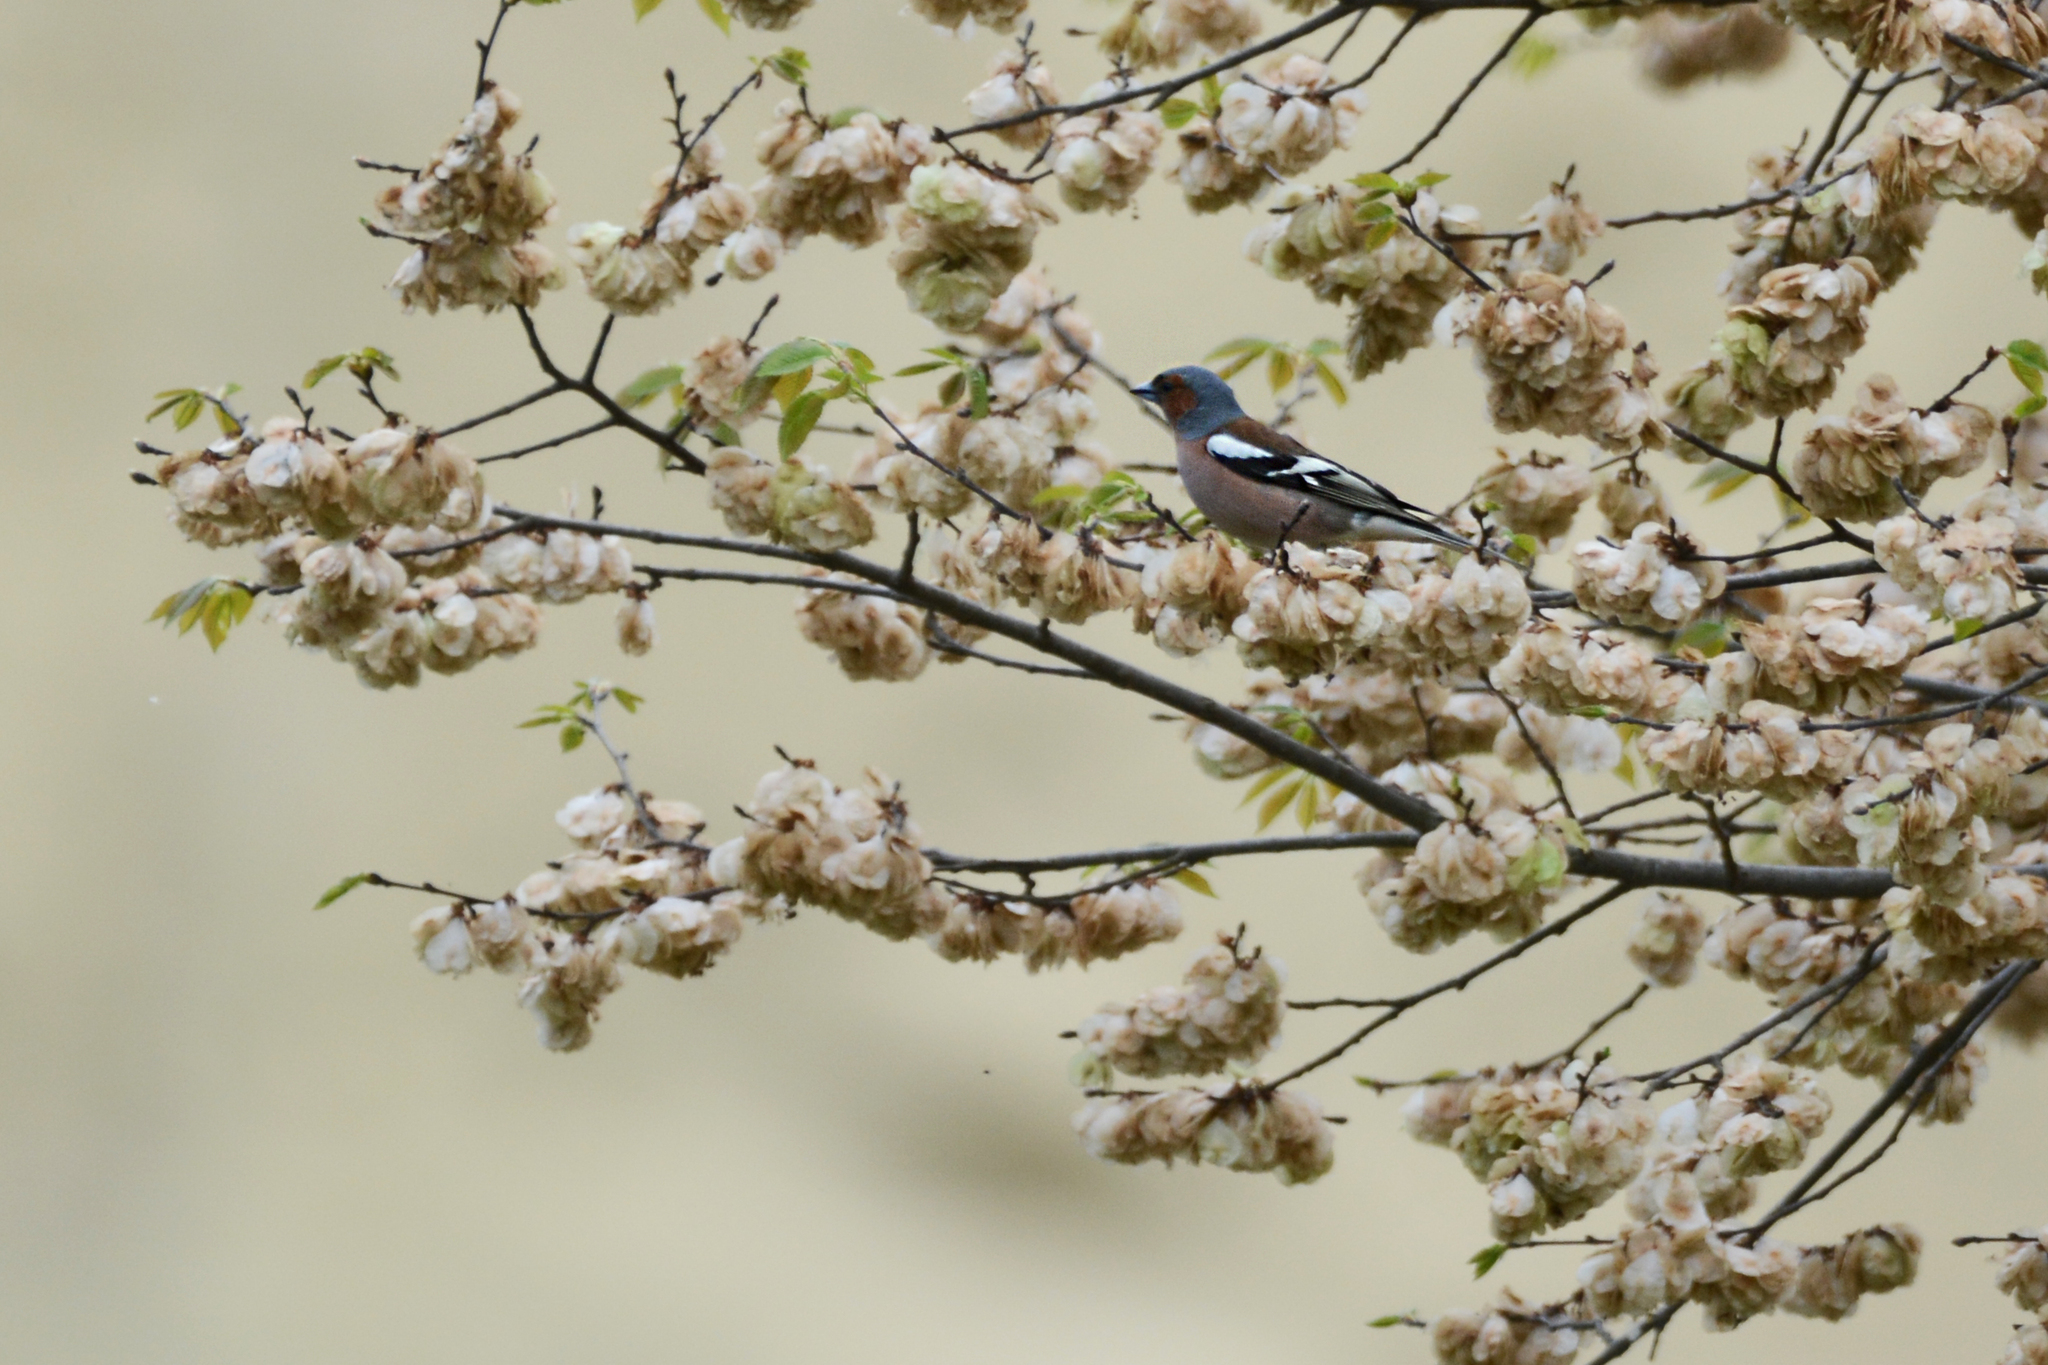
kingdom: Animalia
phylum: Chordata
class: Aves
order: Passeriformes
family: Fringillidae
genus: Fringilla
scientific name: Fringilla coelebs
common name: Common chaffinch
